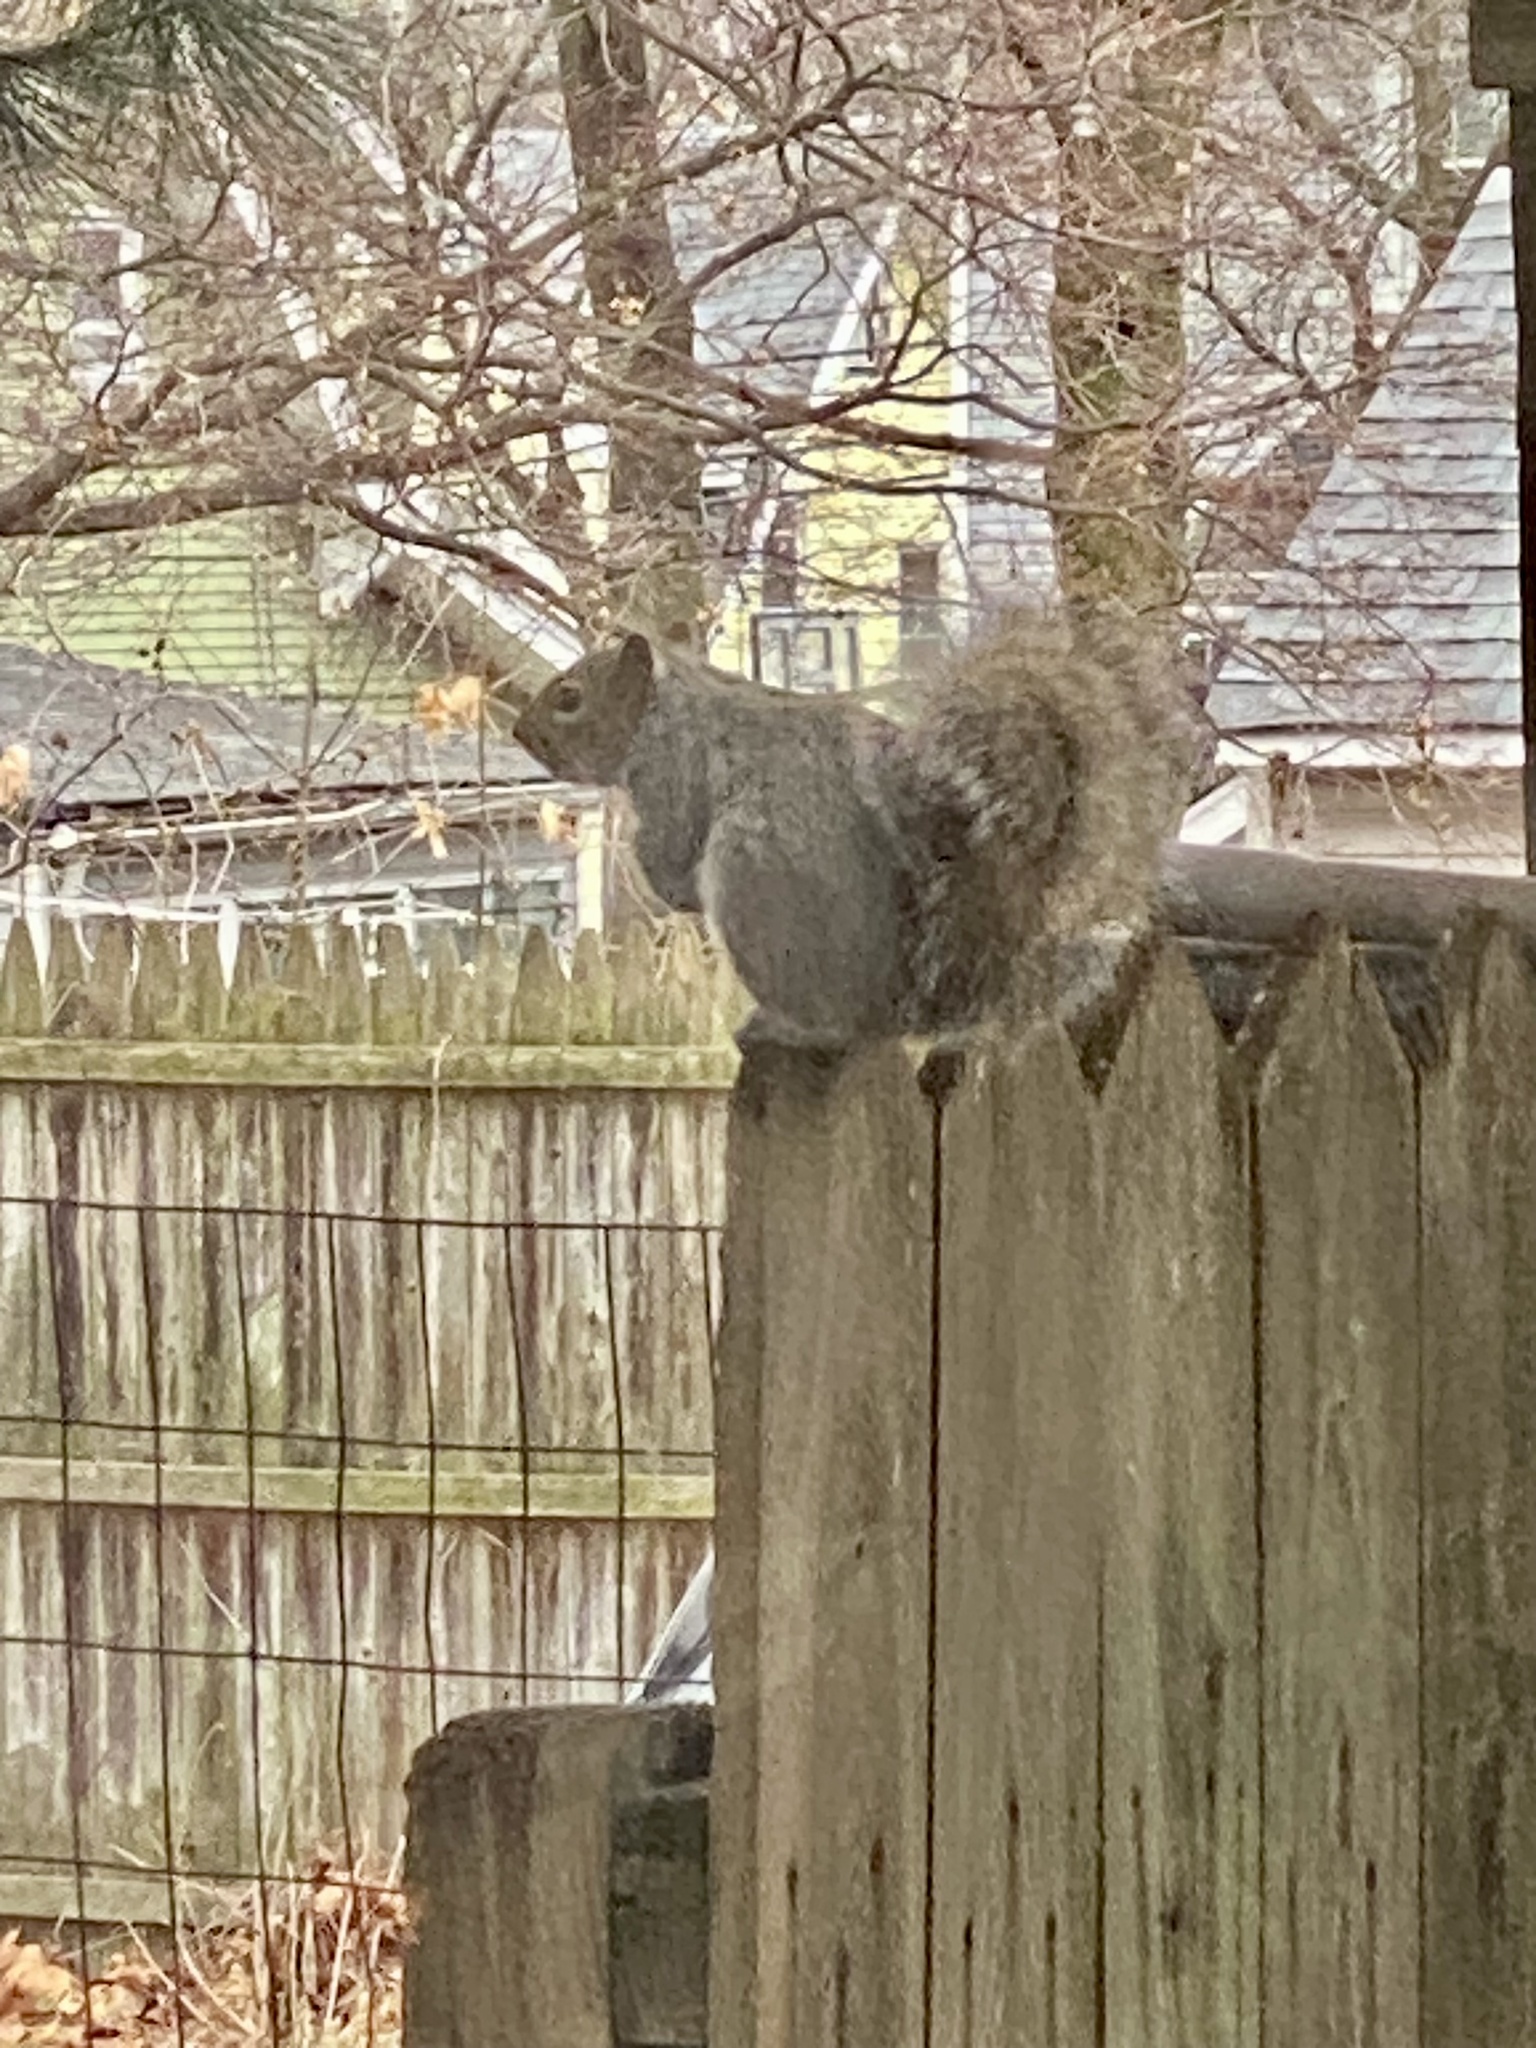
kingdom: Animalia
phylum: Chordata
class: Mammalia
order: Rodentia
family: Sciuridae
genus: Sciurus
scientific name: Sciurus carolinensis
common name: Eastern gray squirrel
